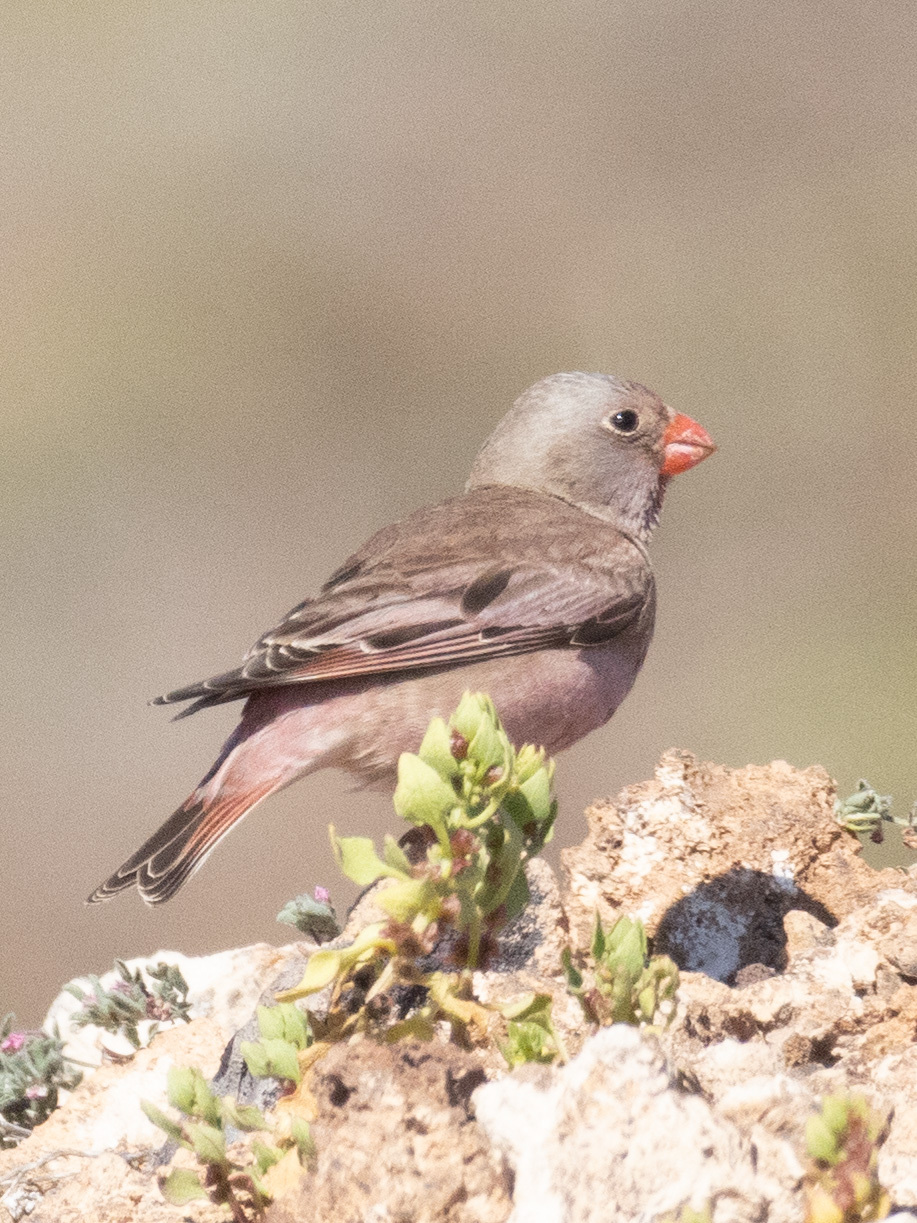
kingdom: Animalia
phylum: Chordata
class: Aves
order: Passeriformes
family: Fringillidae
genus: Bucanetes
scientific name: Bucanetes githagineus
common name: Trumpeter finch
